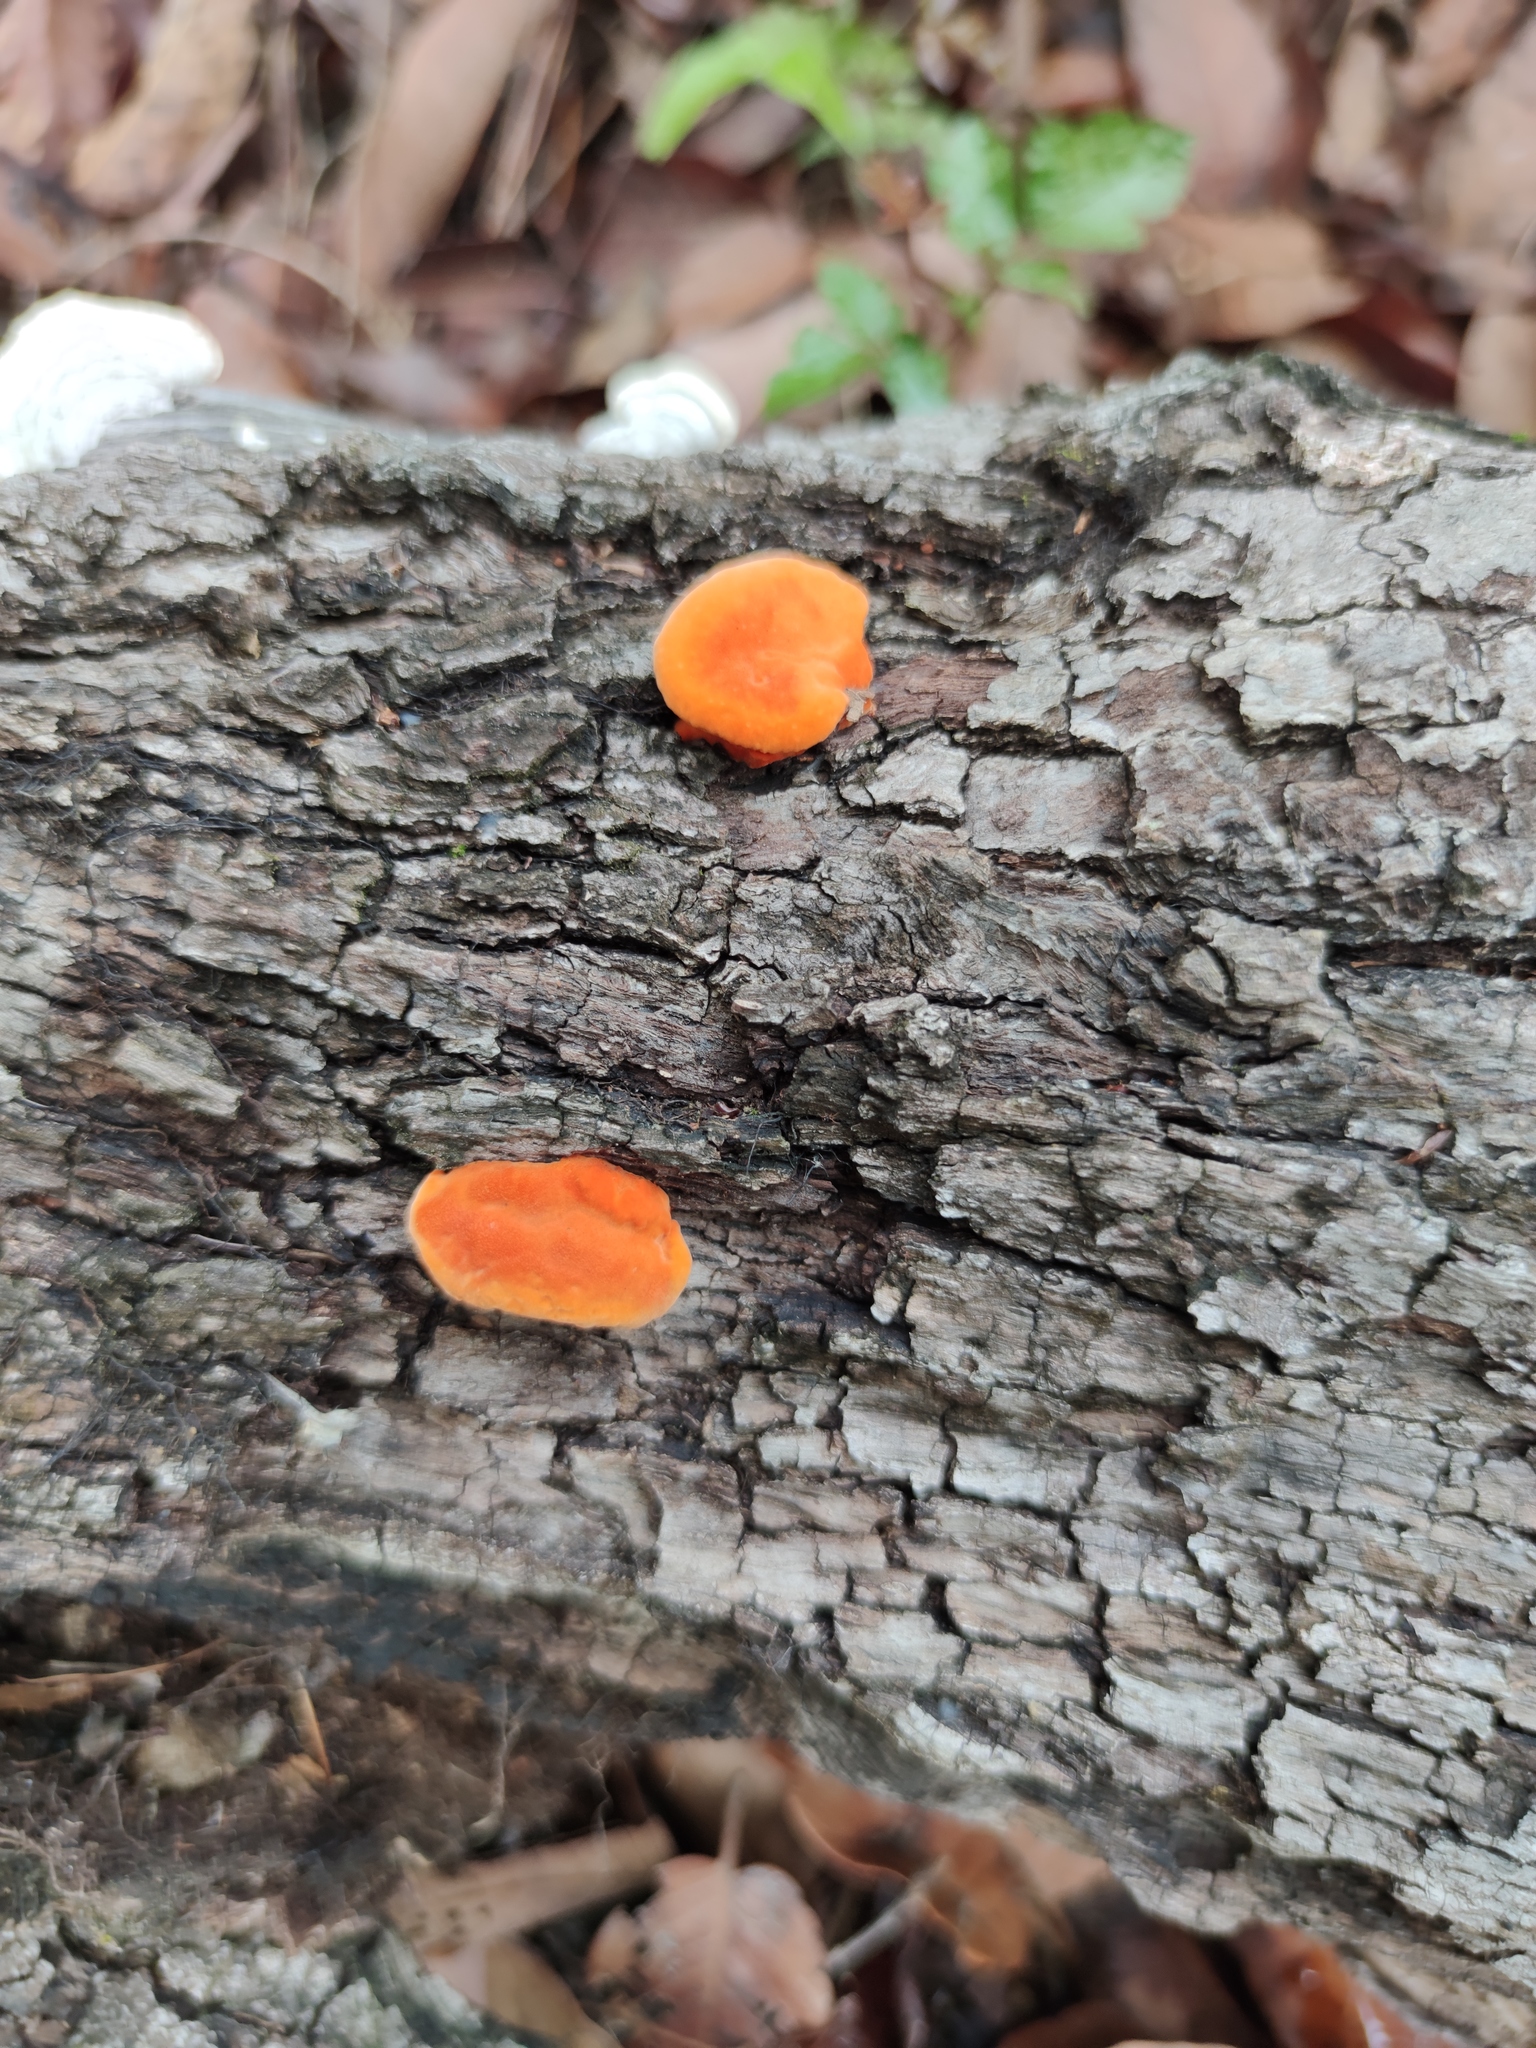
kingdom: Fungi
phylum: Basidiomycota
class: Agaricomycetes
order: Polyporales
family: Polyporaceae
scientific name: Polyporaceae
